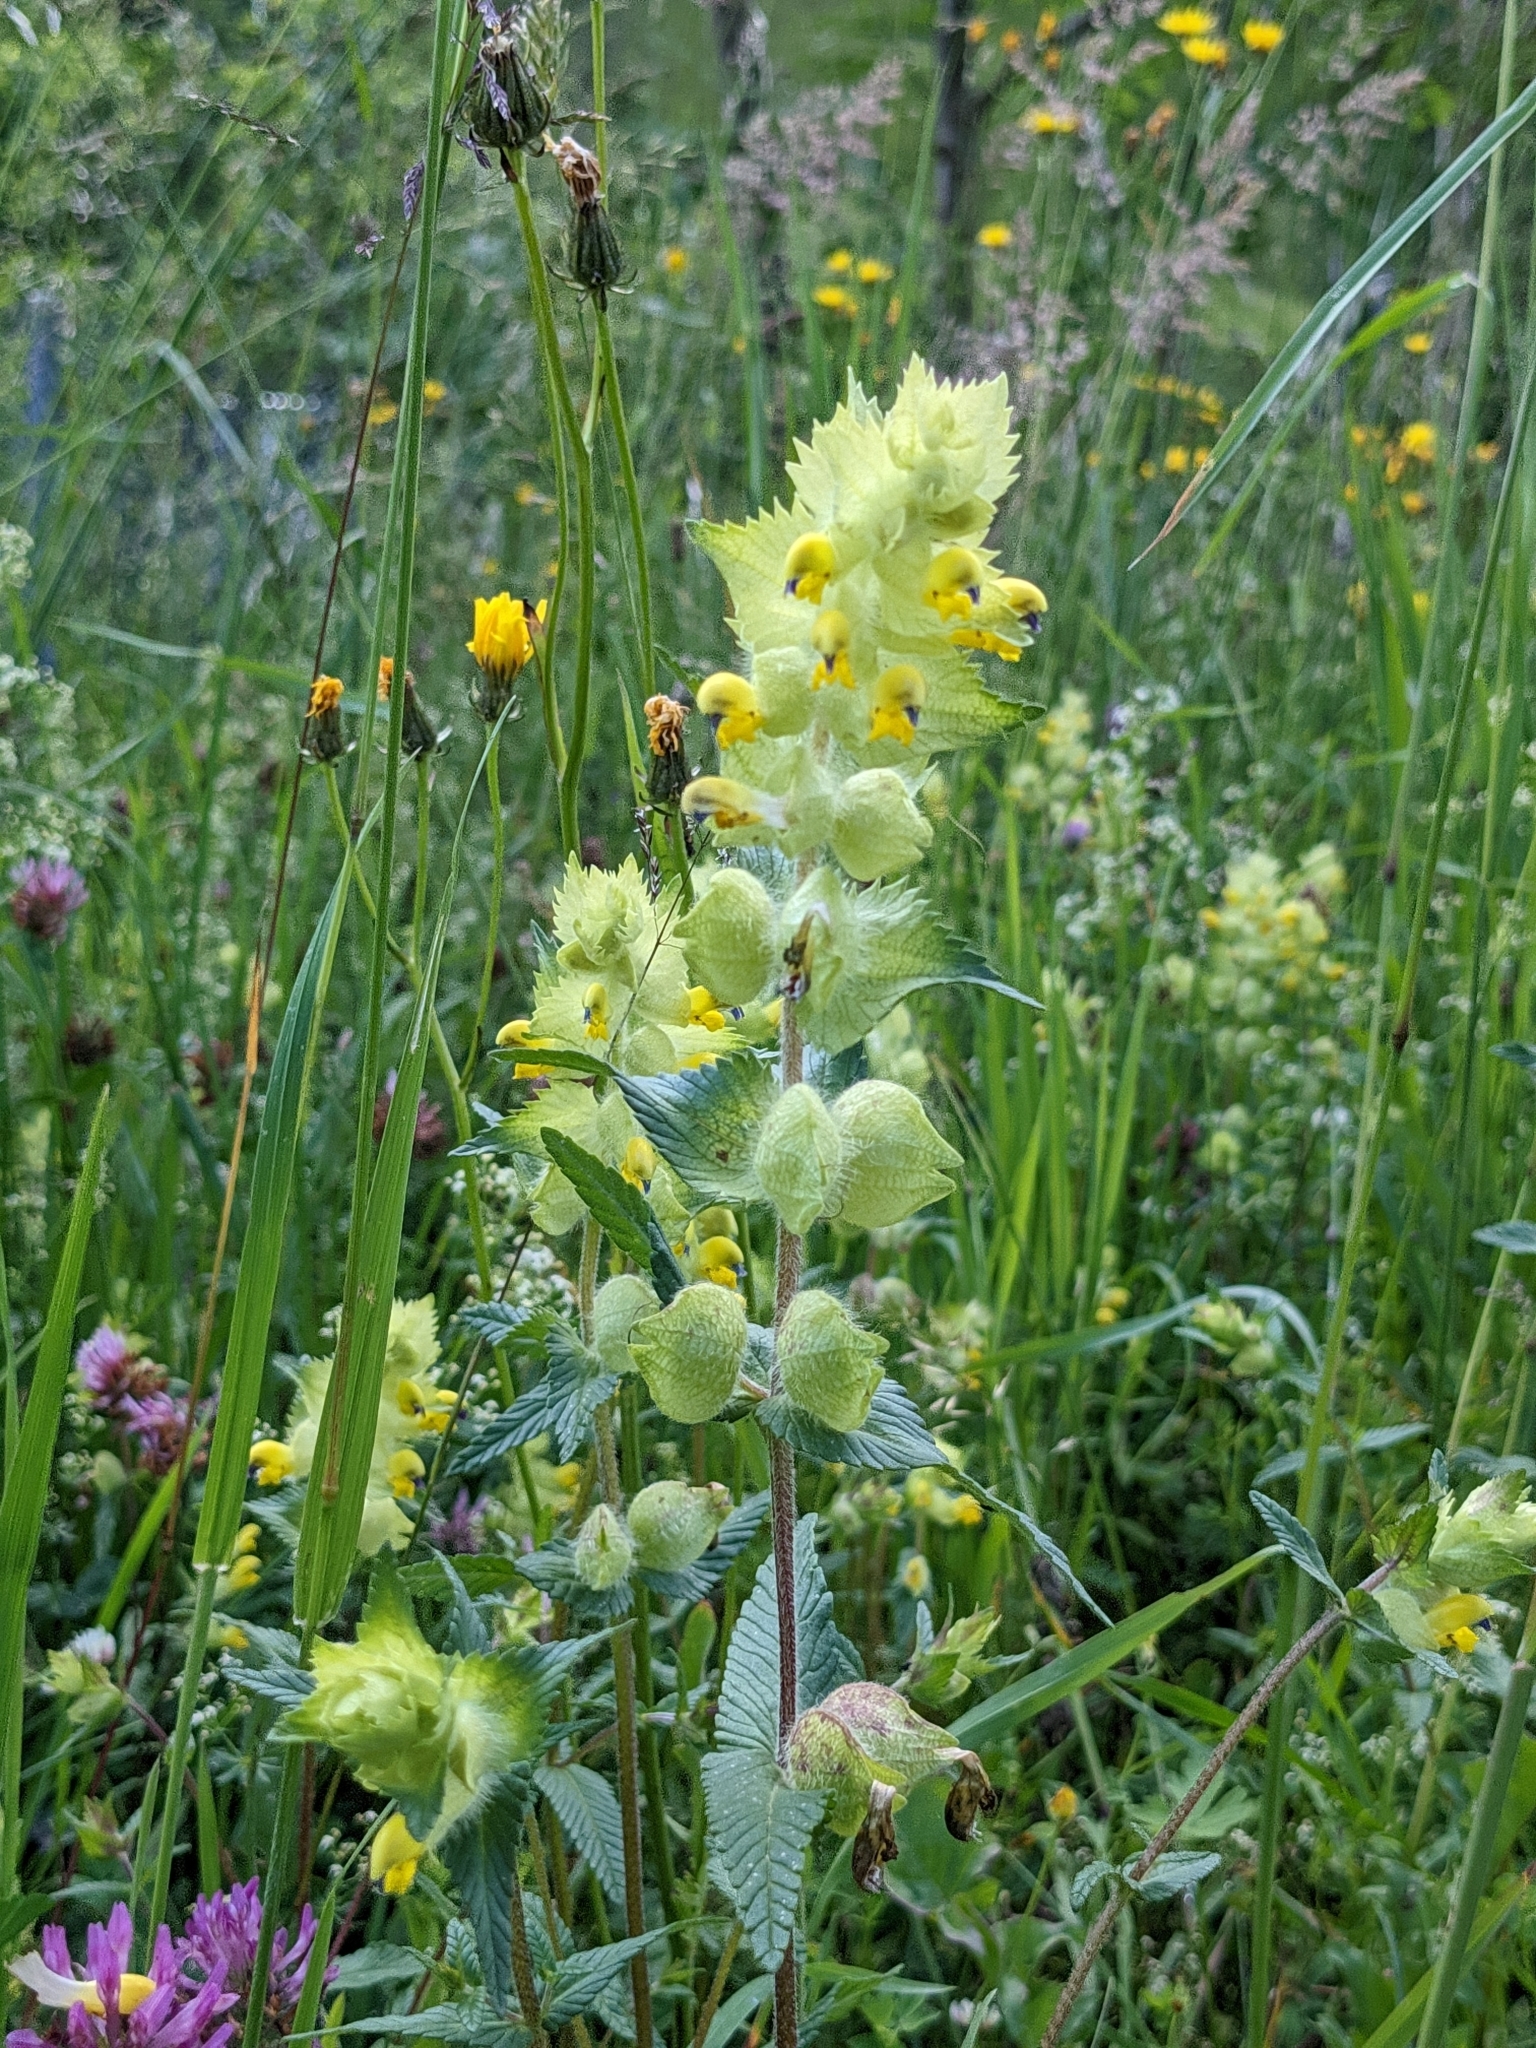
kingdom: Plantae
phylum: Tracheophyta
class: Magnoliopsida
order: Lamiales
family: Orobanchaceae
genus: Rhinanthus
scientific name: Rhinanthus alectorolophus
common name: Greater yellow-rattle
